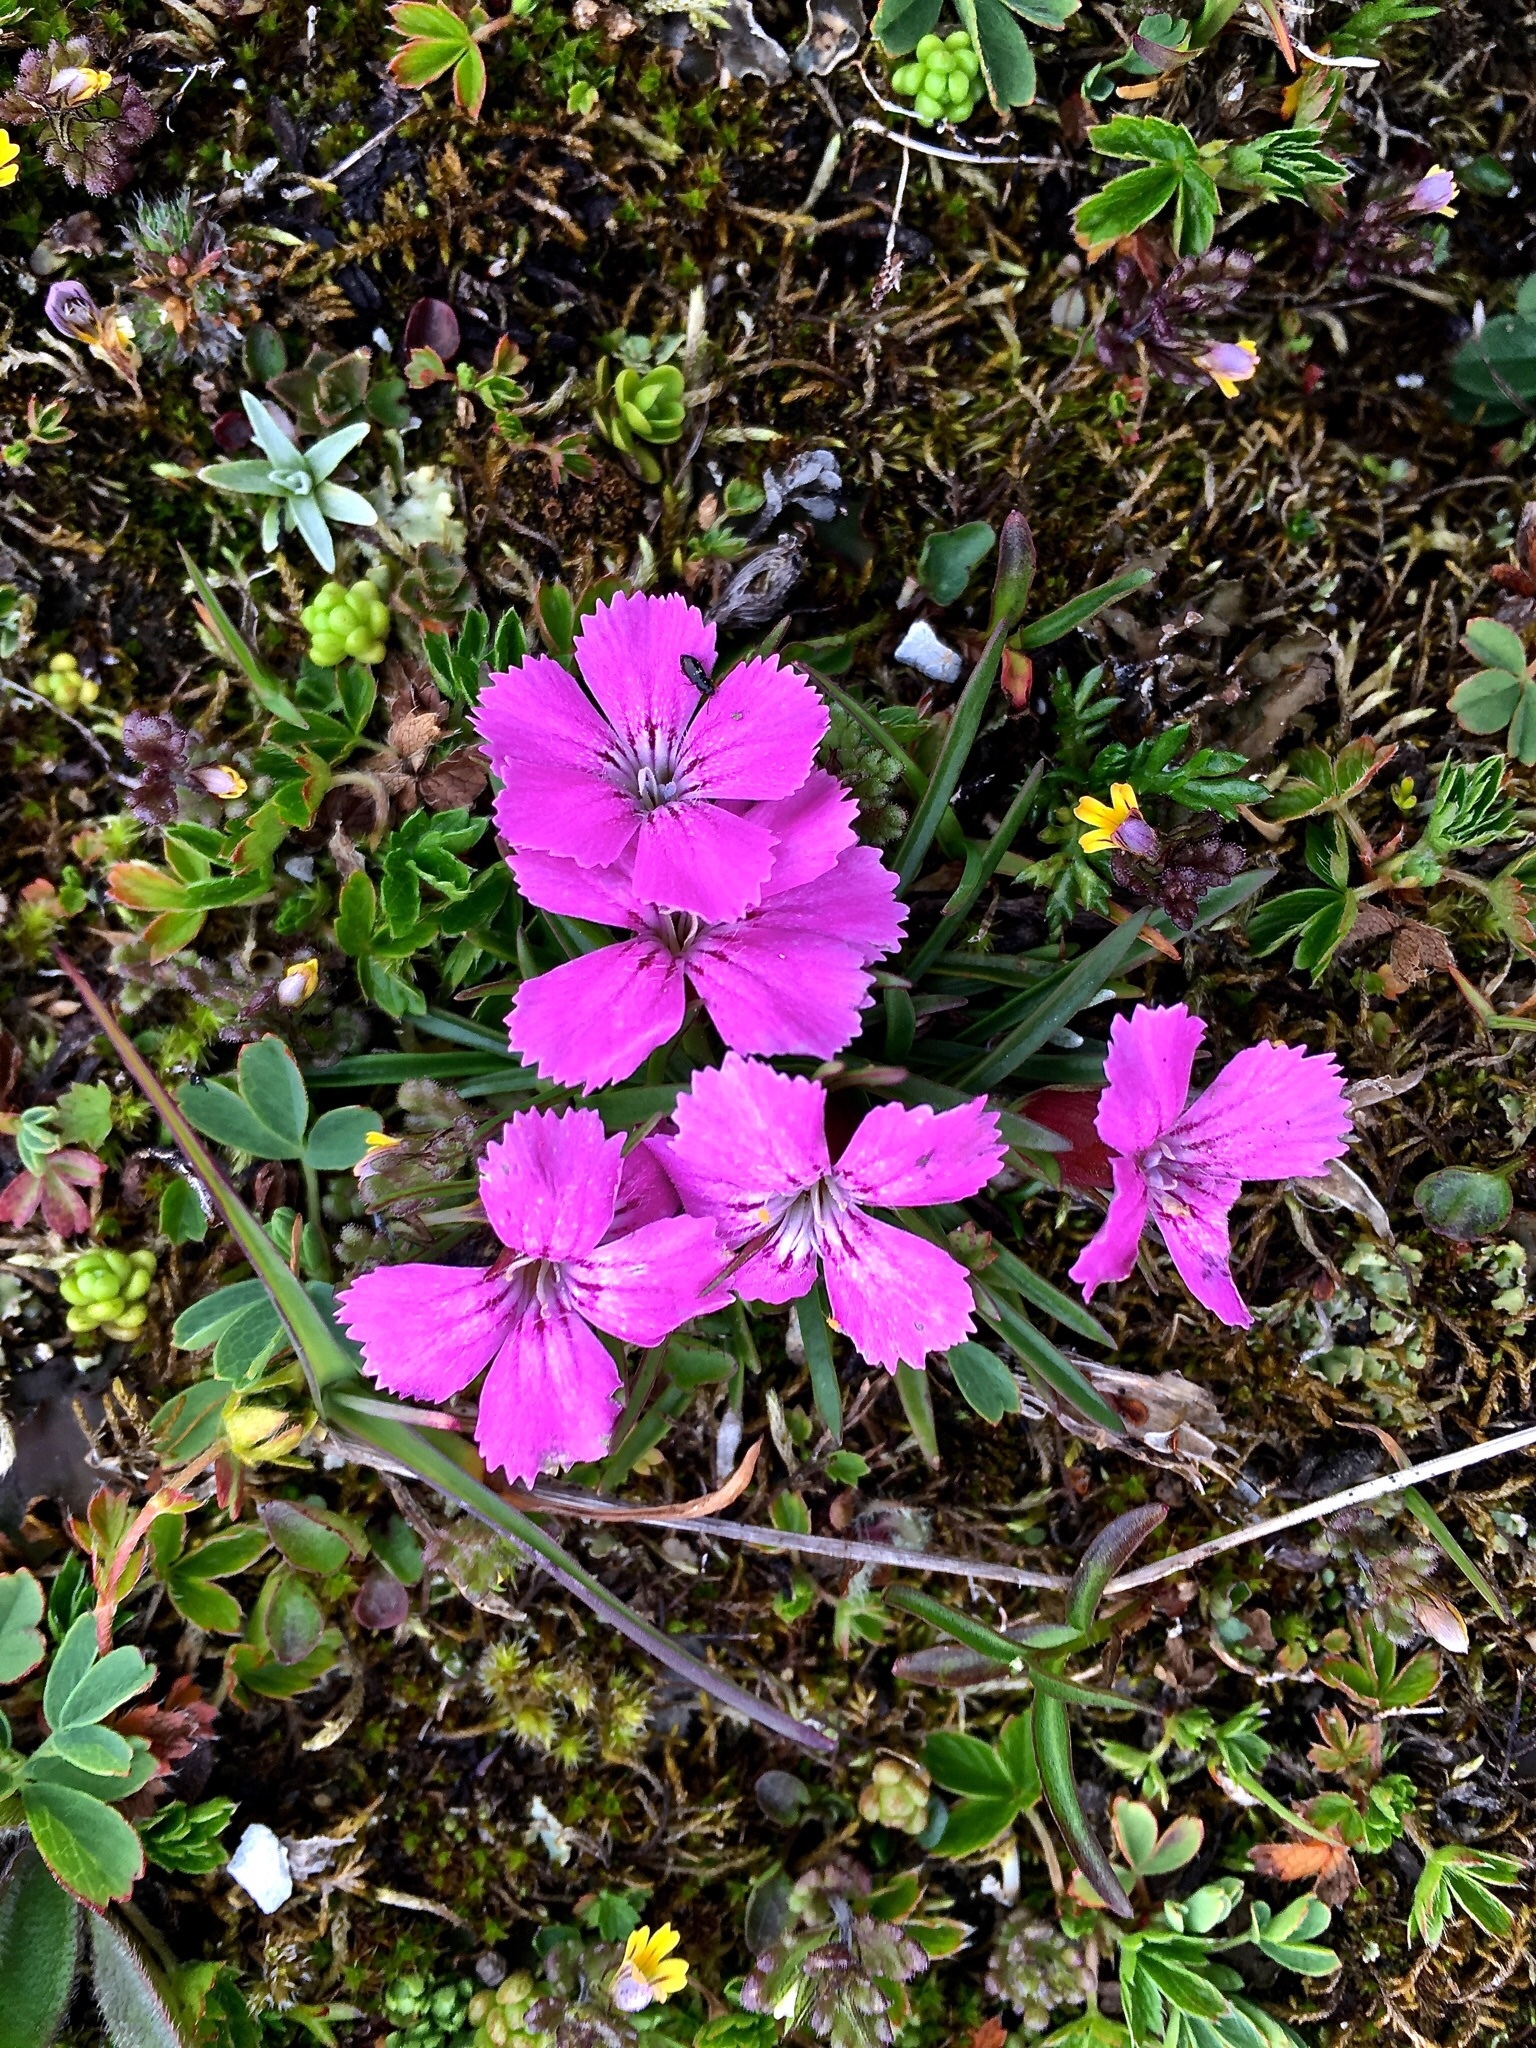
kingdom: Plantae
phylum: Tracheophyta
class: Magnoliopsida
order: Caryophyllales
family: Caryophyllaceae
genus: Dianthus
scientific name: Dianthus glacialis
